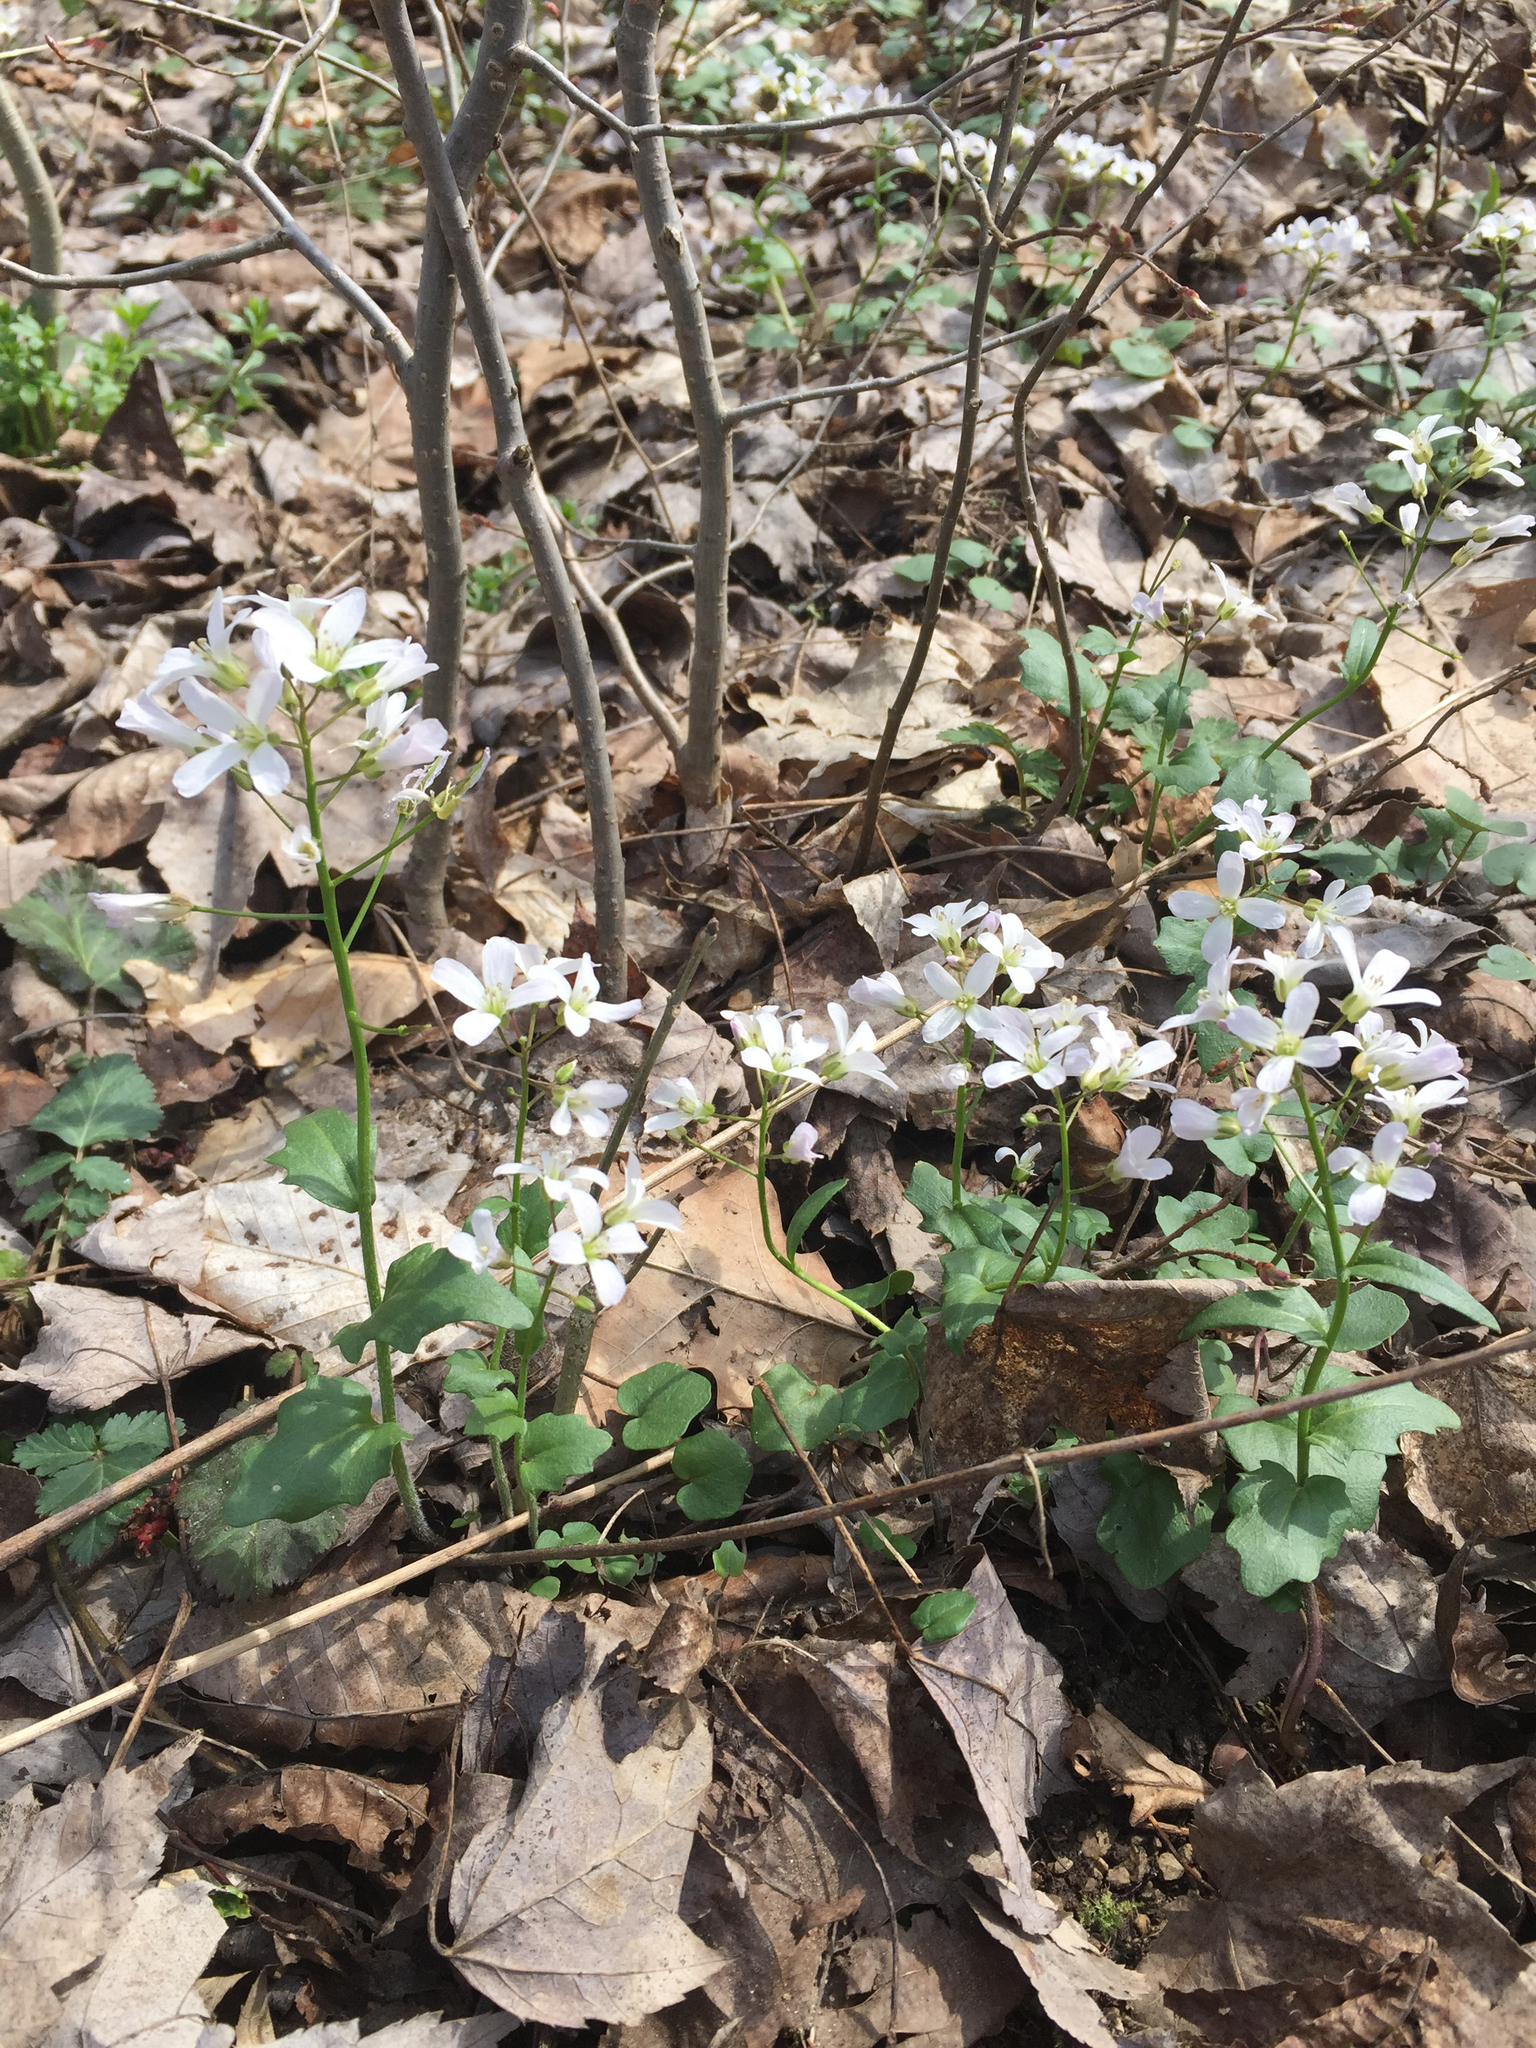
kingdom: Plantae
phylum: Tracheophyta
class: Magnoliopsida
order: Brassicales
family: Brassicaceae
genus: Cardamine
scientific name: Cardamine bulbosa
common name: Spring cress
